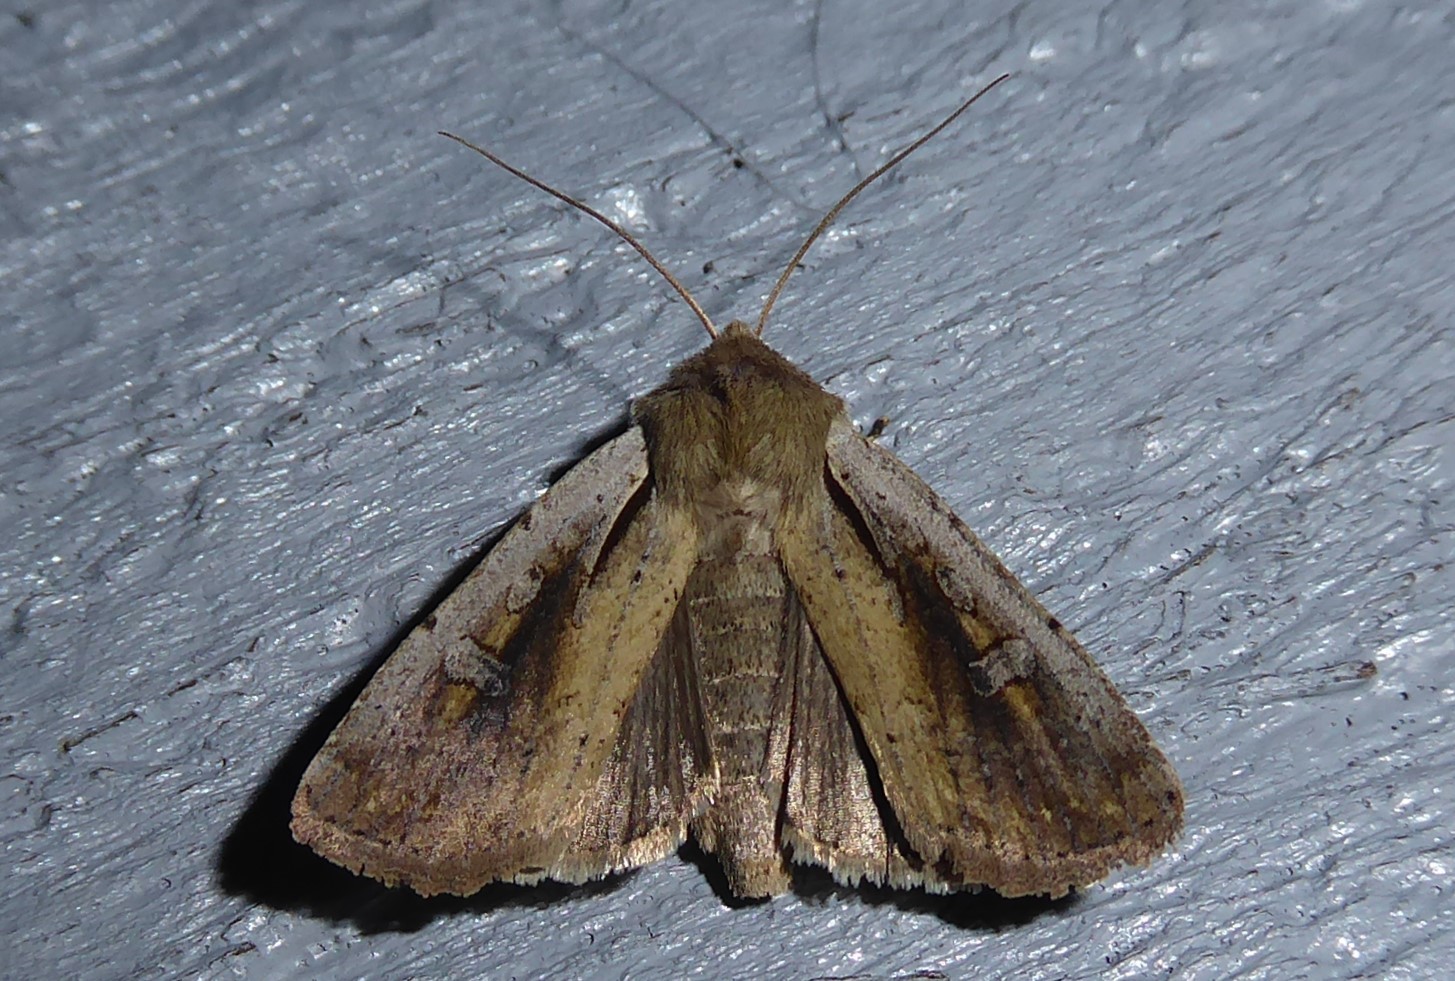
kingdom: Animalia
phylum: Arthropoda
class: Insecta
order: Lepidoptera
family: Noctuidae
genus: Ichneutica
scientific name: Ichneutica atristriga
